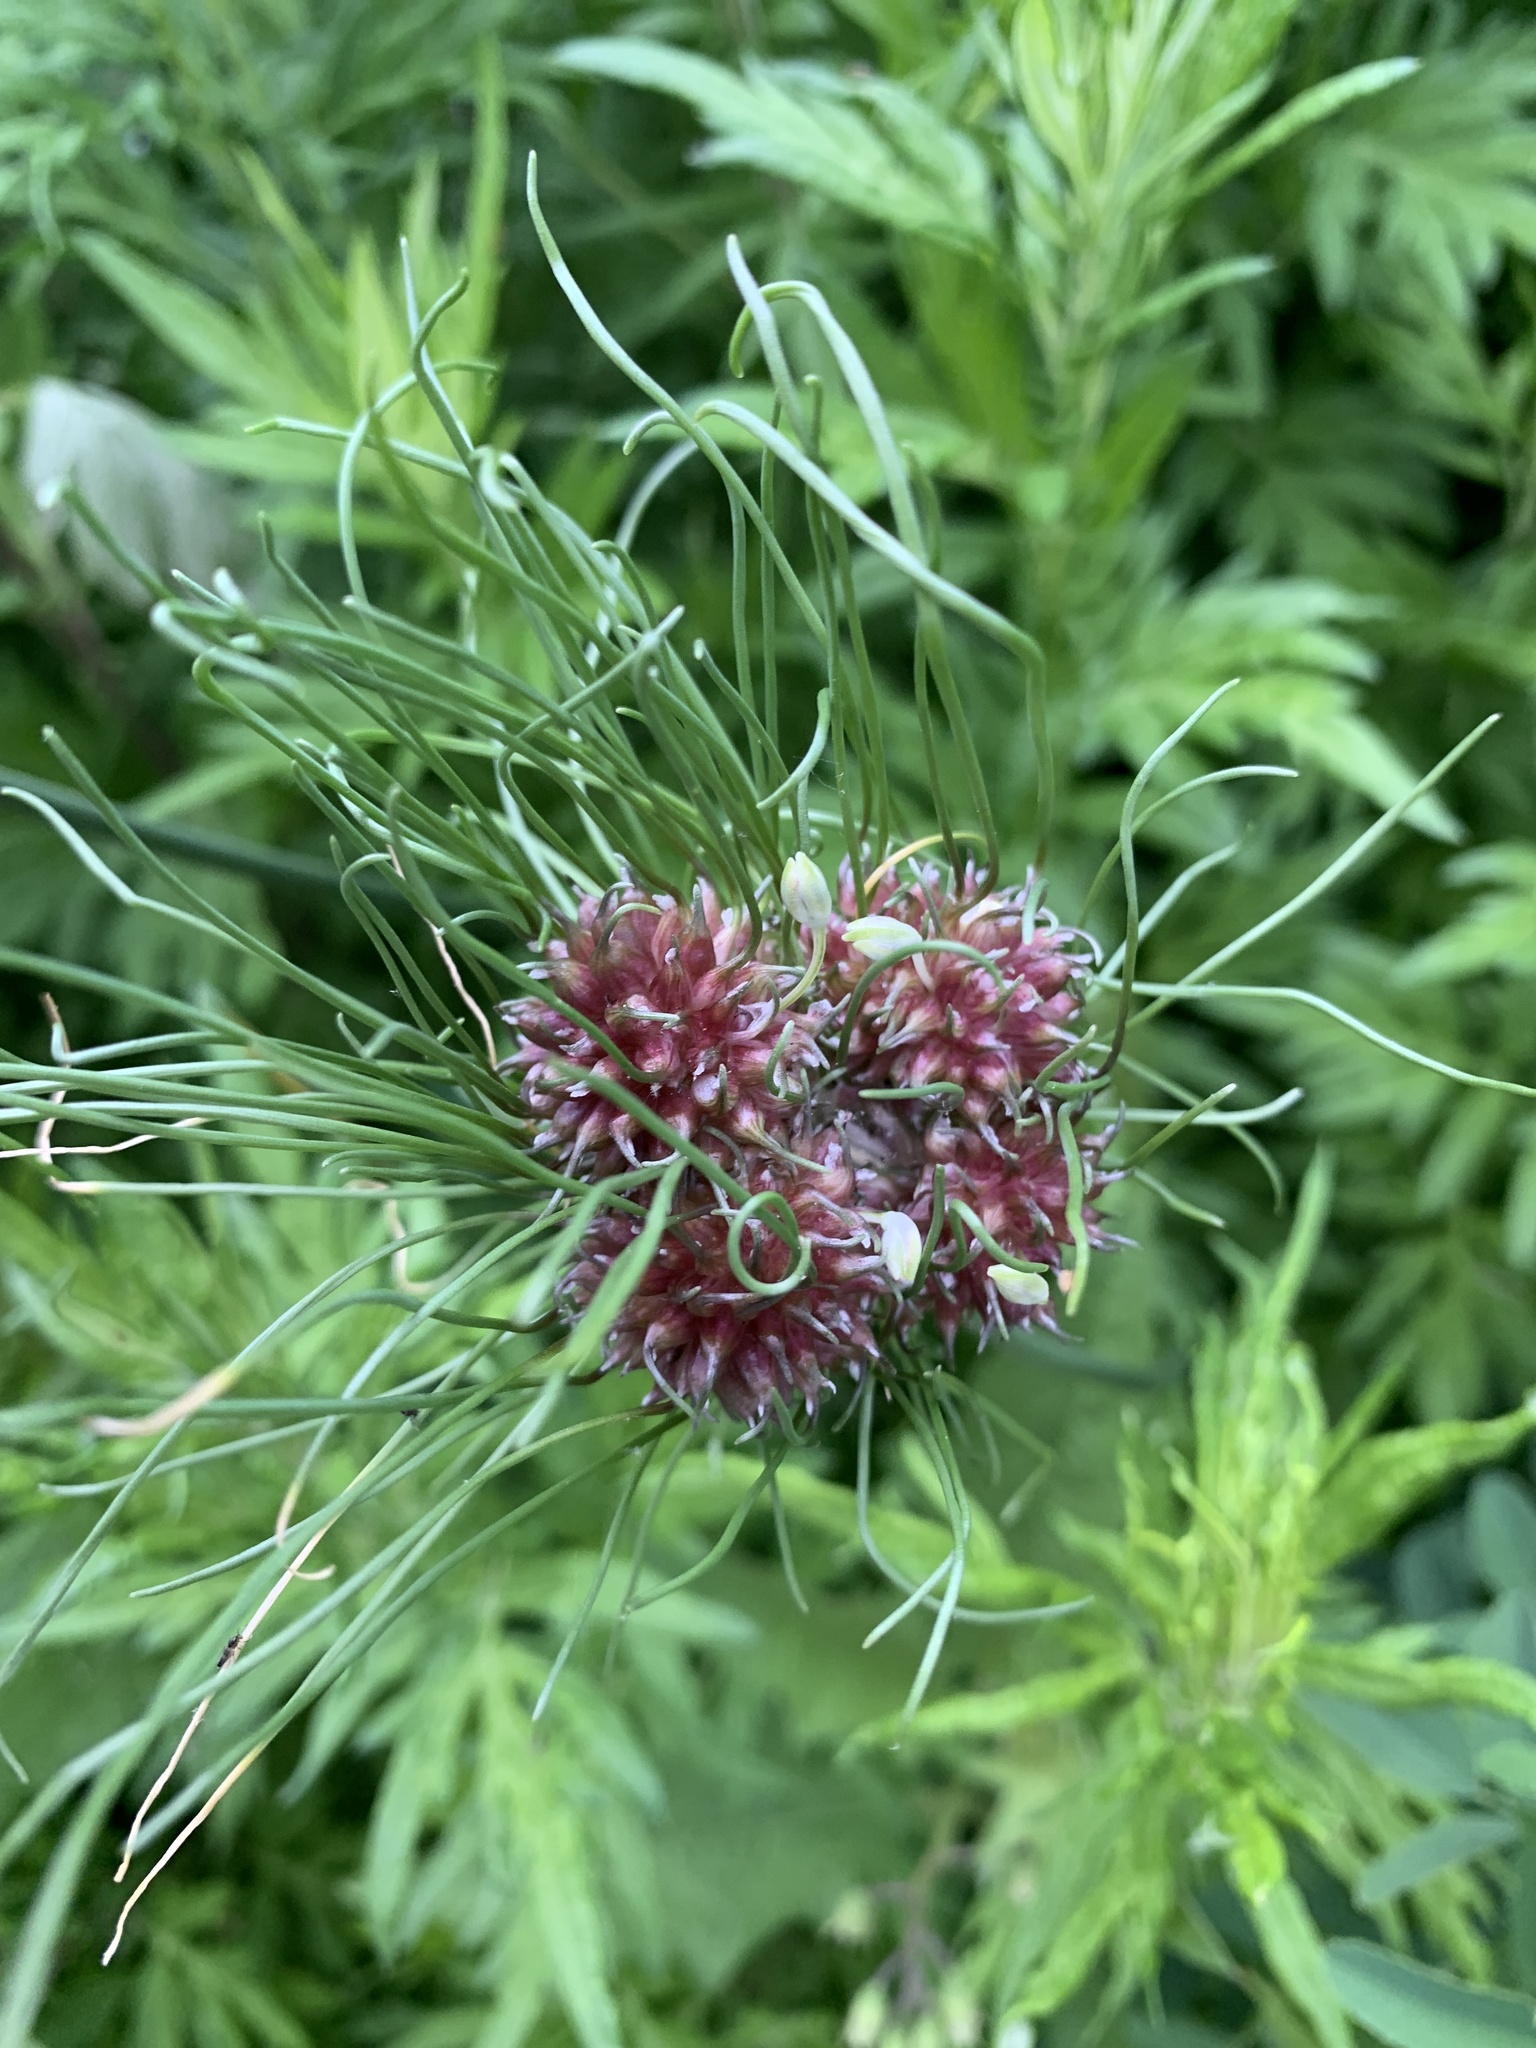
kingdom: Plantae
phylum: Tracheophyta
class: Liliopsida
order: Asparagales
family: Amaryllidaceae
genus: Allium
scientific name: Allium vineale
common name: Crow garlic
